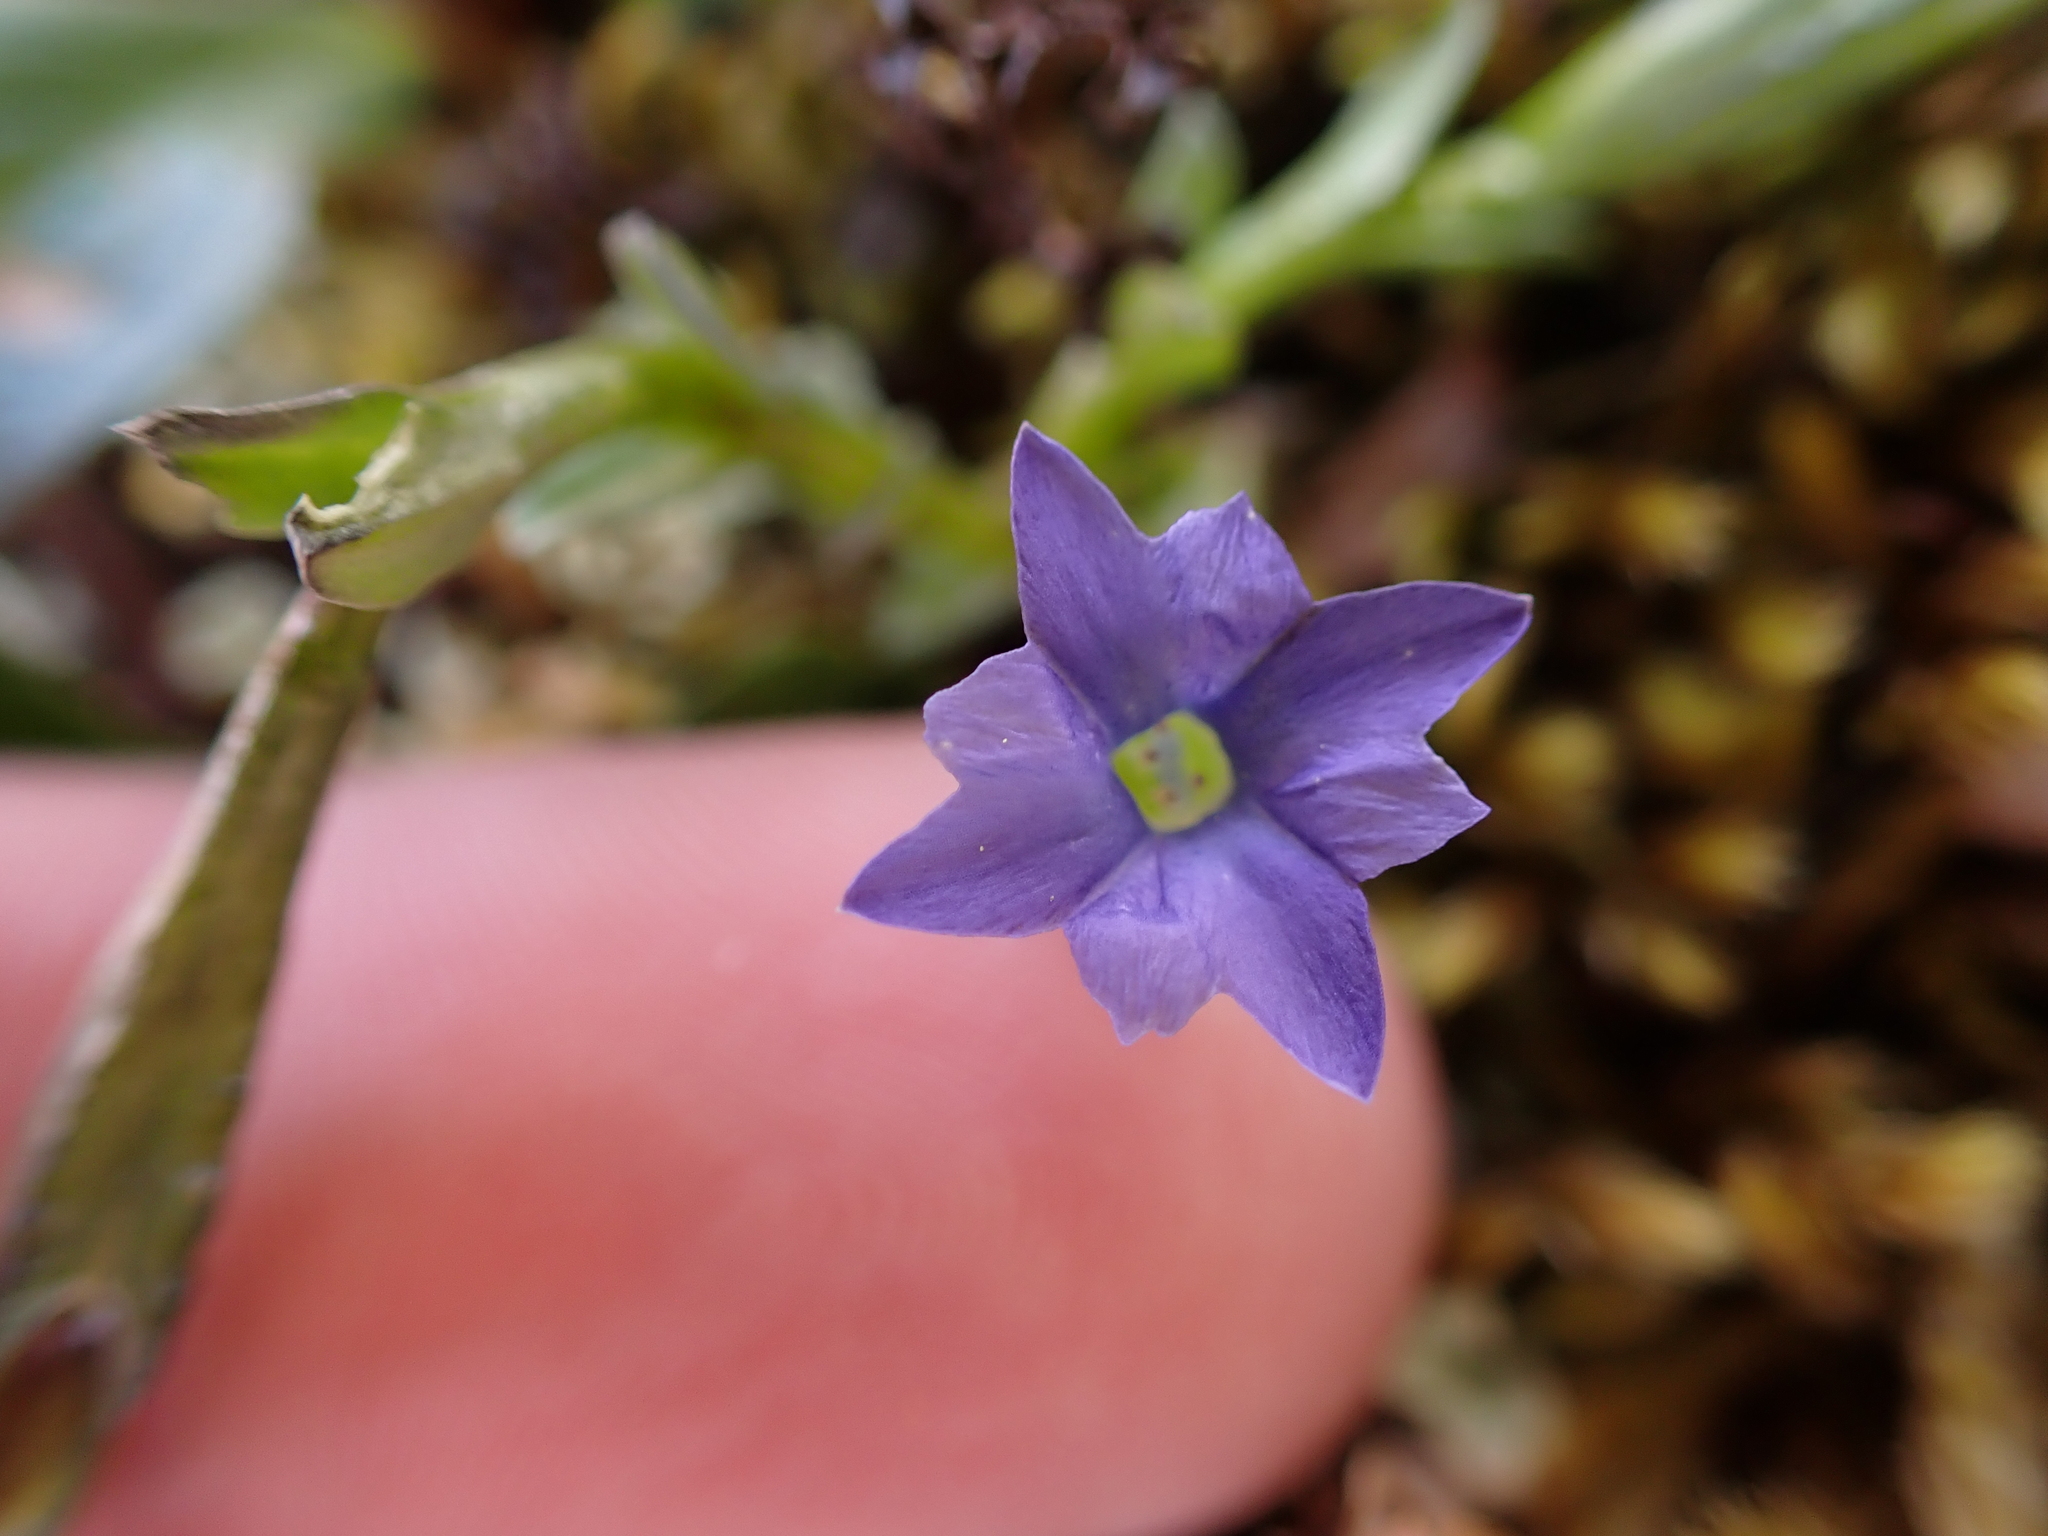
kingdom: Plantae
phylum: Tracheophyta
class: Magnoliopsida
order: Gentianales
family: Gentianaceae
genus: Gentiana
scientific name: Gentiana prostrata
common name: Moss gentian
